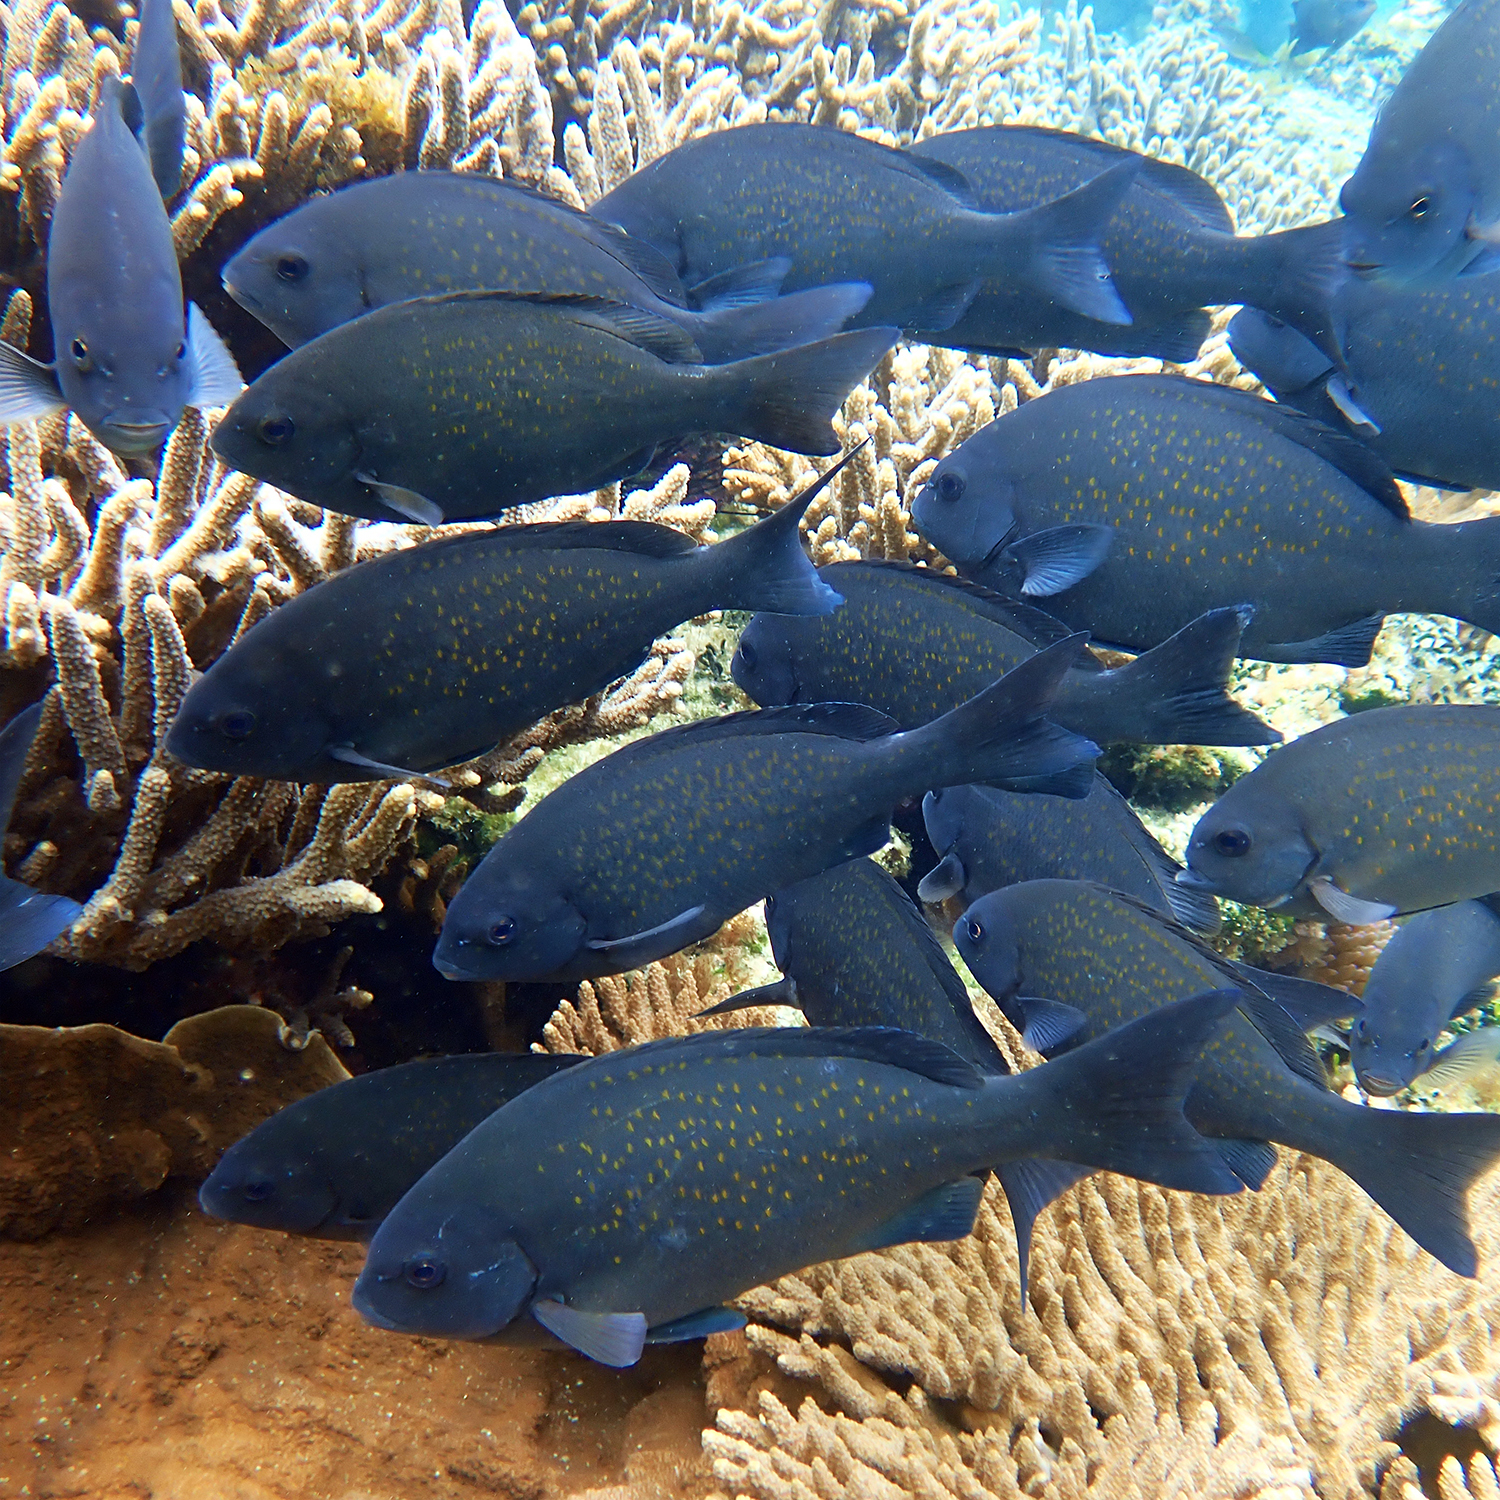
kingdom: Animalia
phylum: Chordata
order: Perciformes
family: Kyphosidae
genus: Girella
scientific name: Girella cyanea
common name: Bluefish
